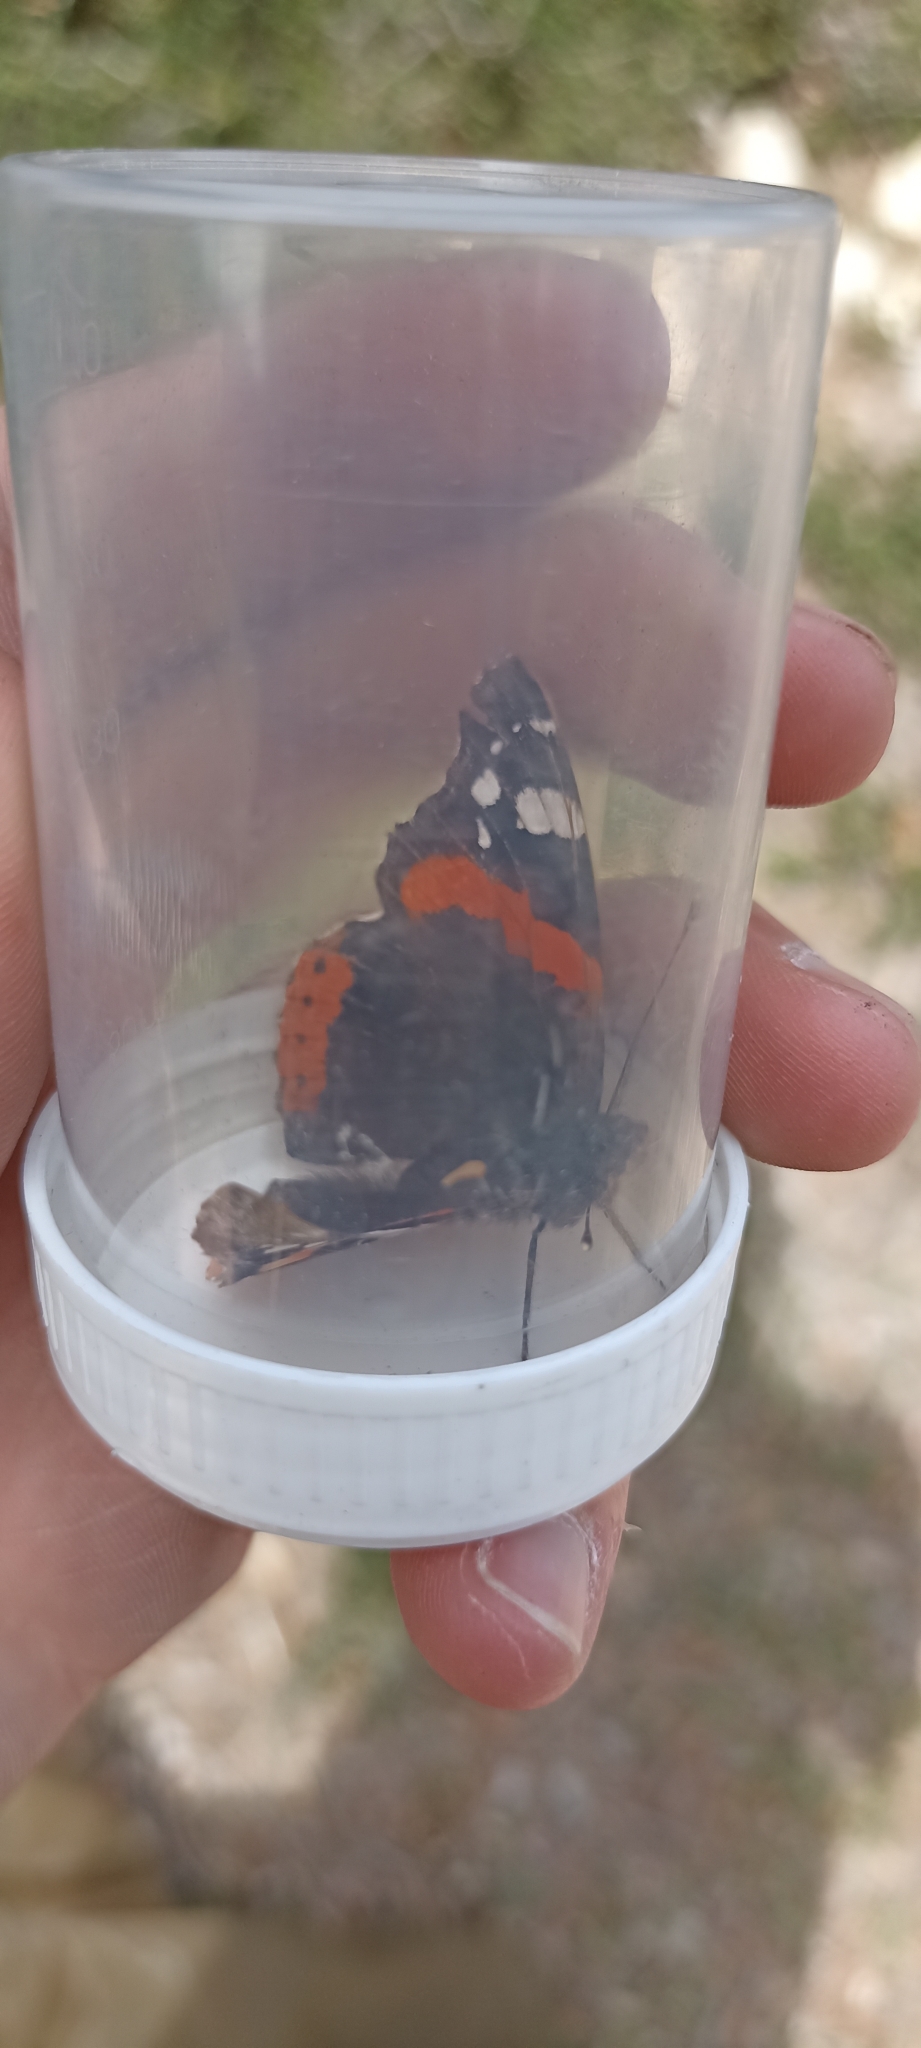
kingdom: Animalia
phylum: Arthropoda
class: Insecta
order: Lepidoptera
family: Nymphalidae
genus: Vanessa
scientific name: Vanessa atalanta
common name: Red admiral
